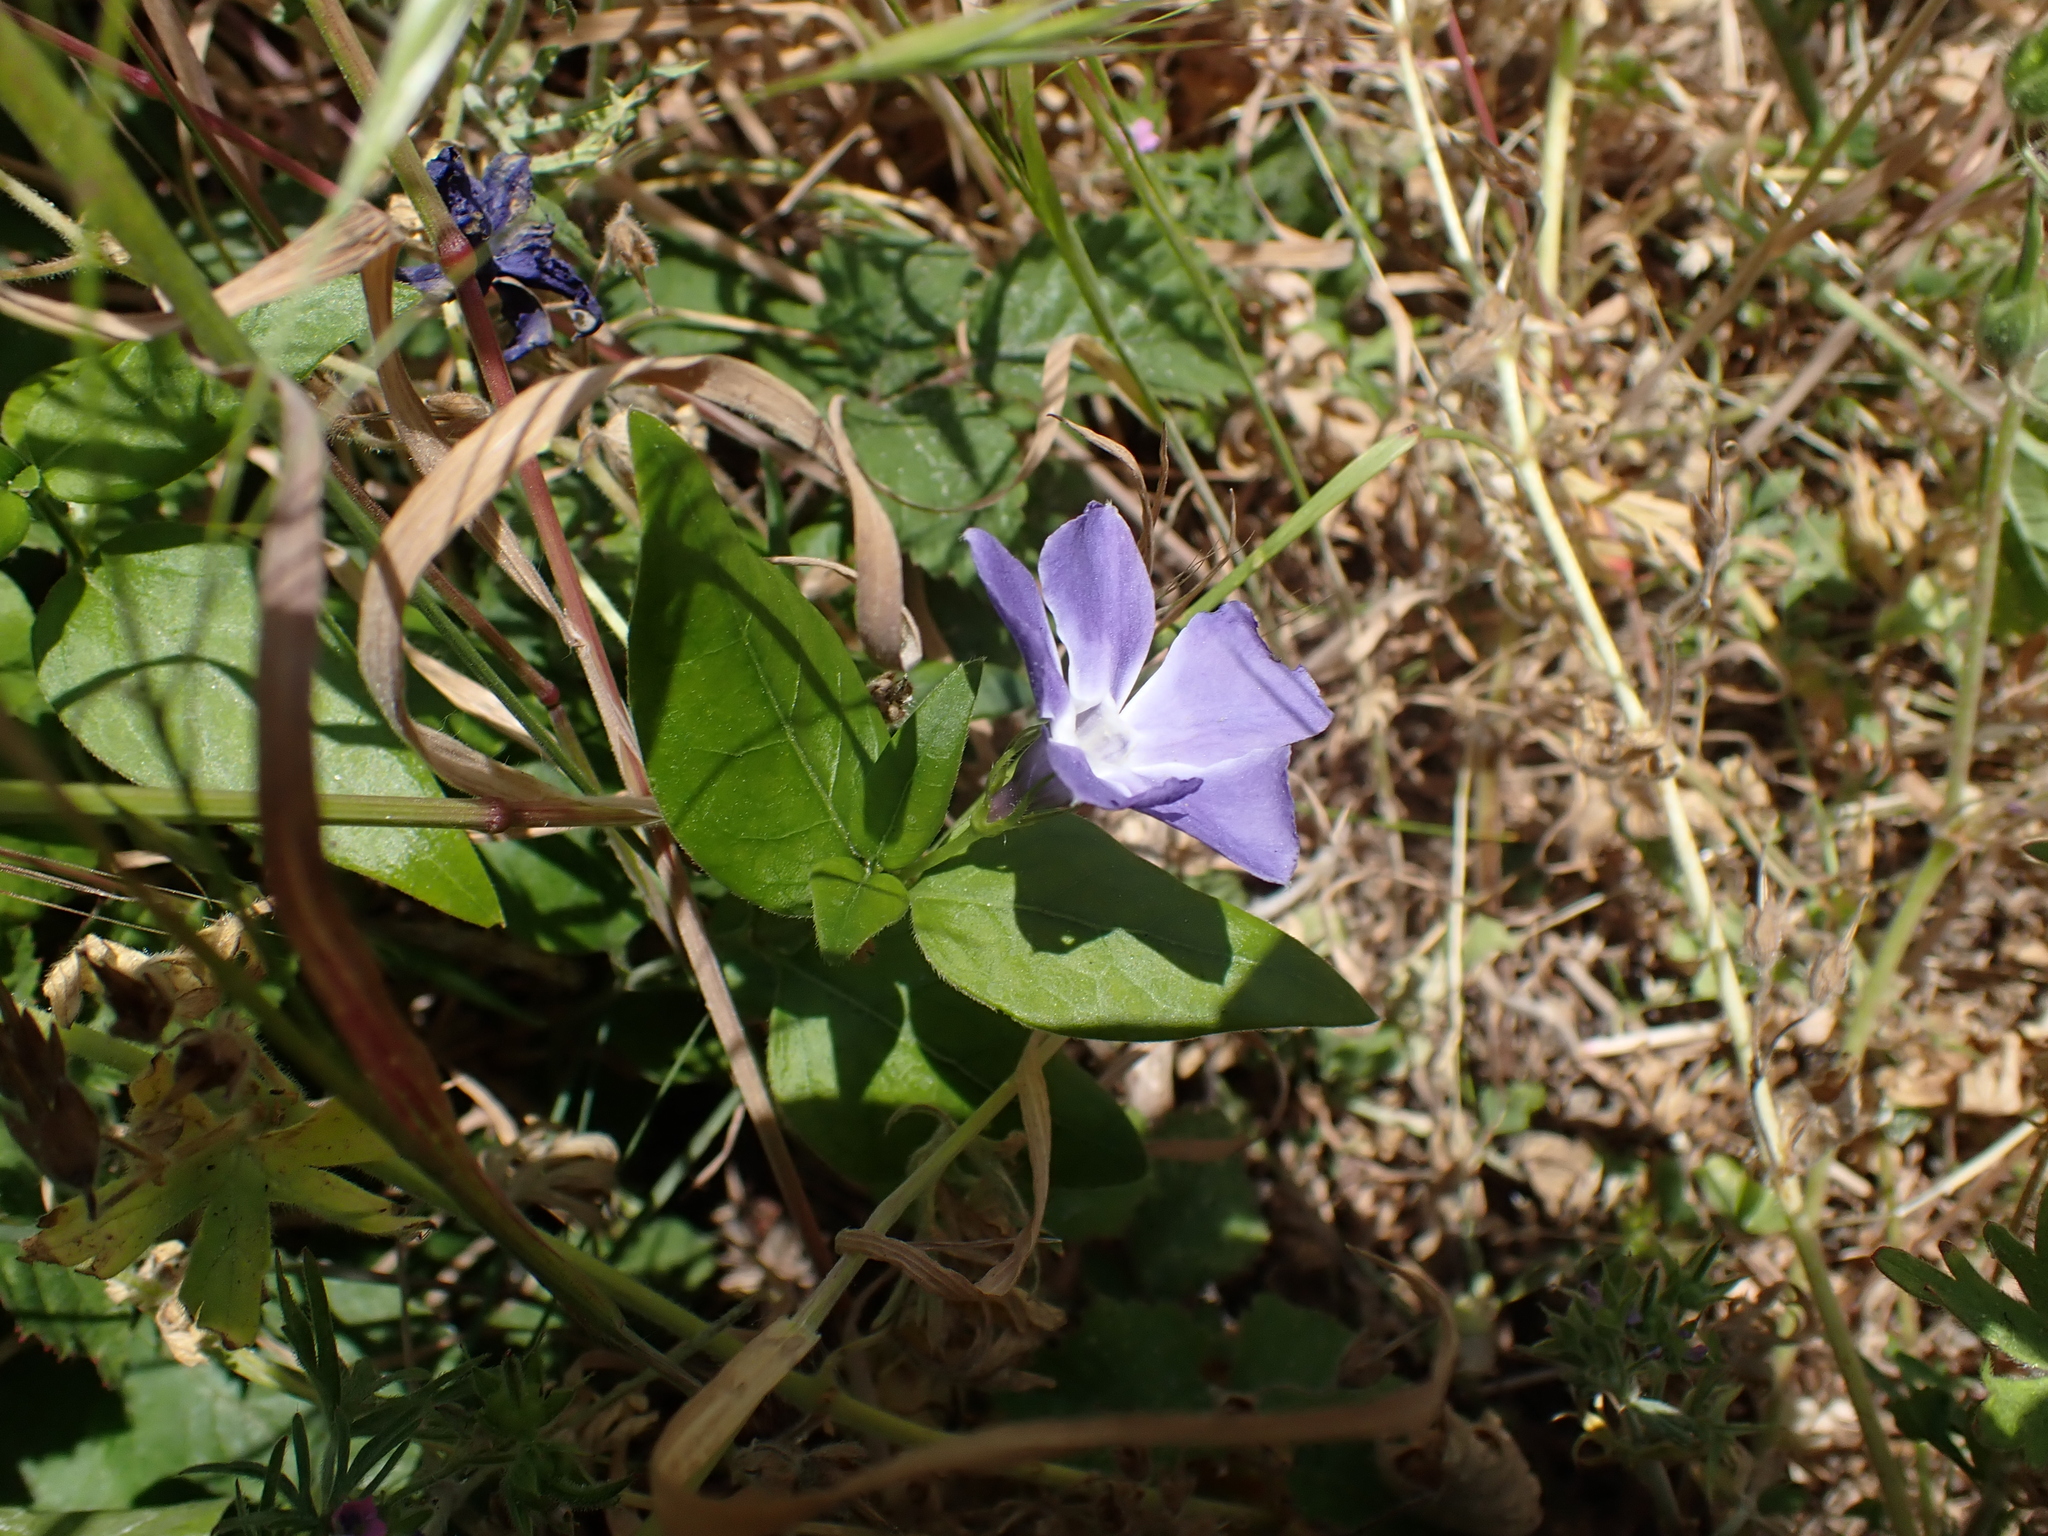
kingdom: Plantae
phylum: Tracheophyta
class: Magnoliopsida
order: Gentianales
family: Apocynaceae
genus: Vinca
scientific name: Vinca major
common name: Greater periwinkle
